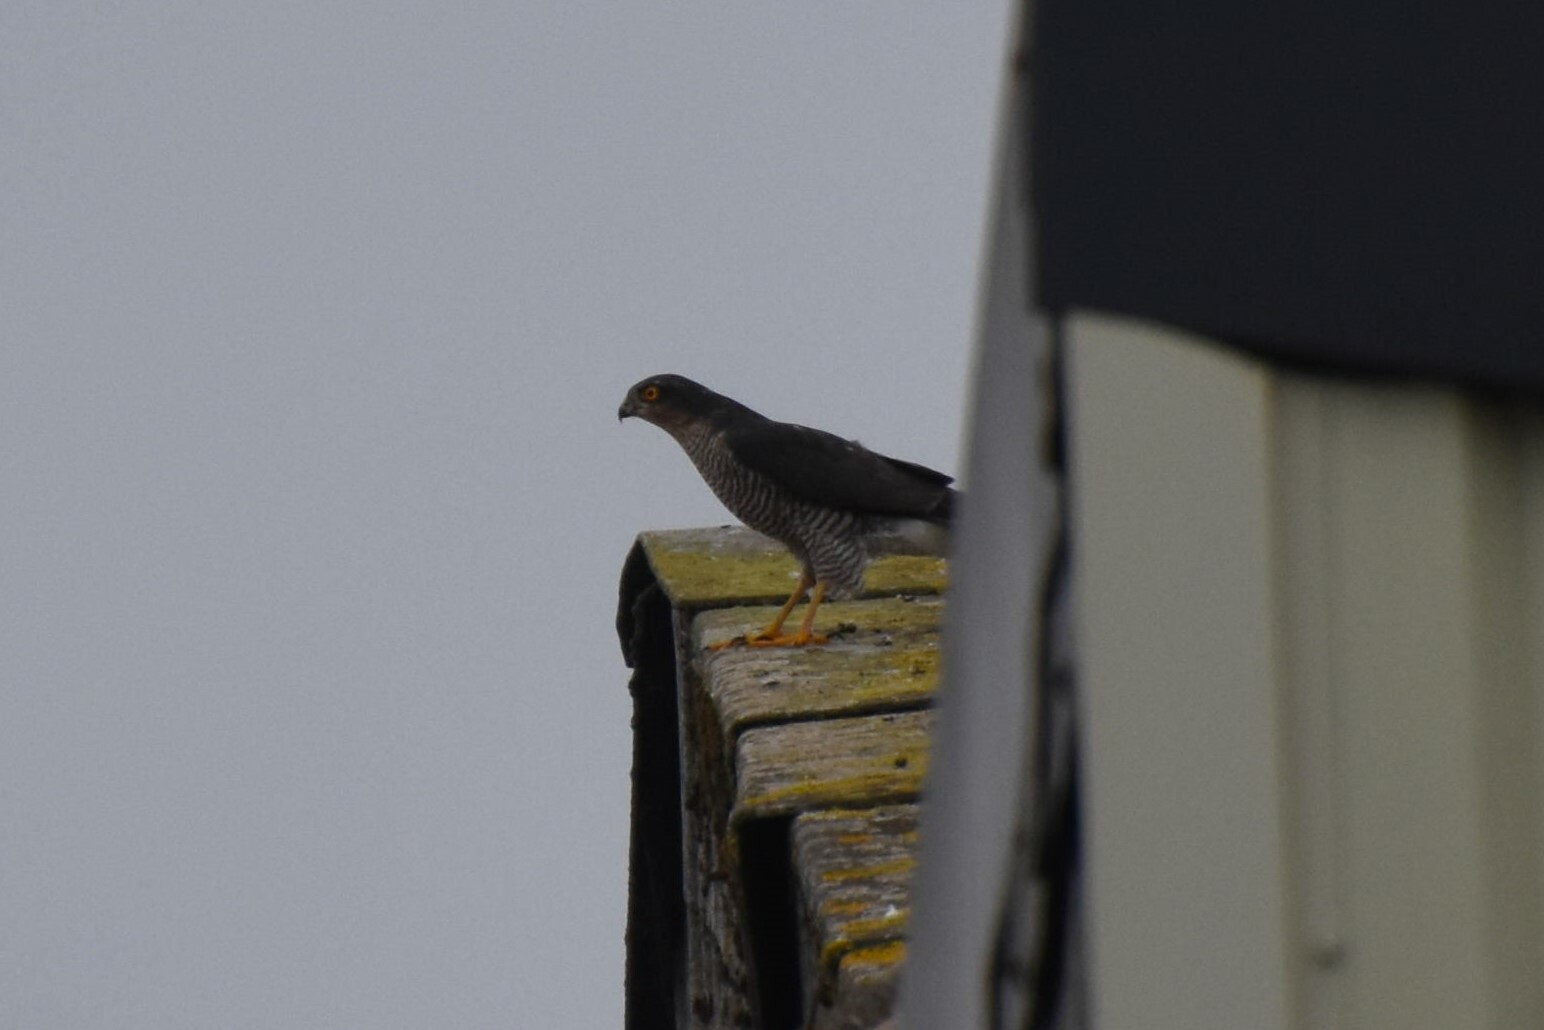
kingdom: Animalia
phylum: Chordata
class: Aves
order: Accipitriformes
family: Accipitridae
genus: Accipiter
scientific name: Accipiter nisus
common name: Eurasian sparrowhawk
